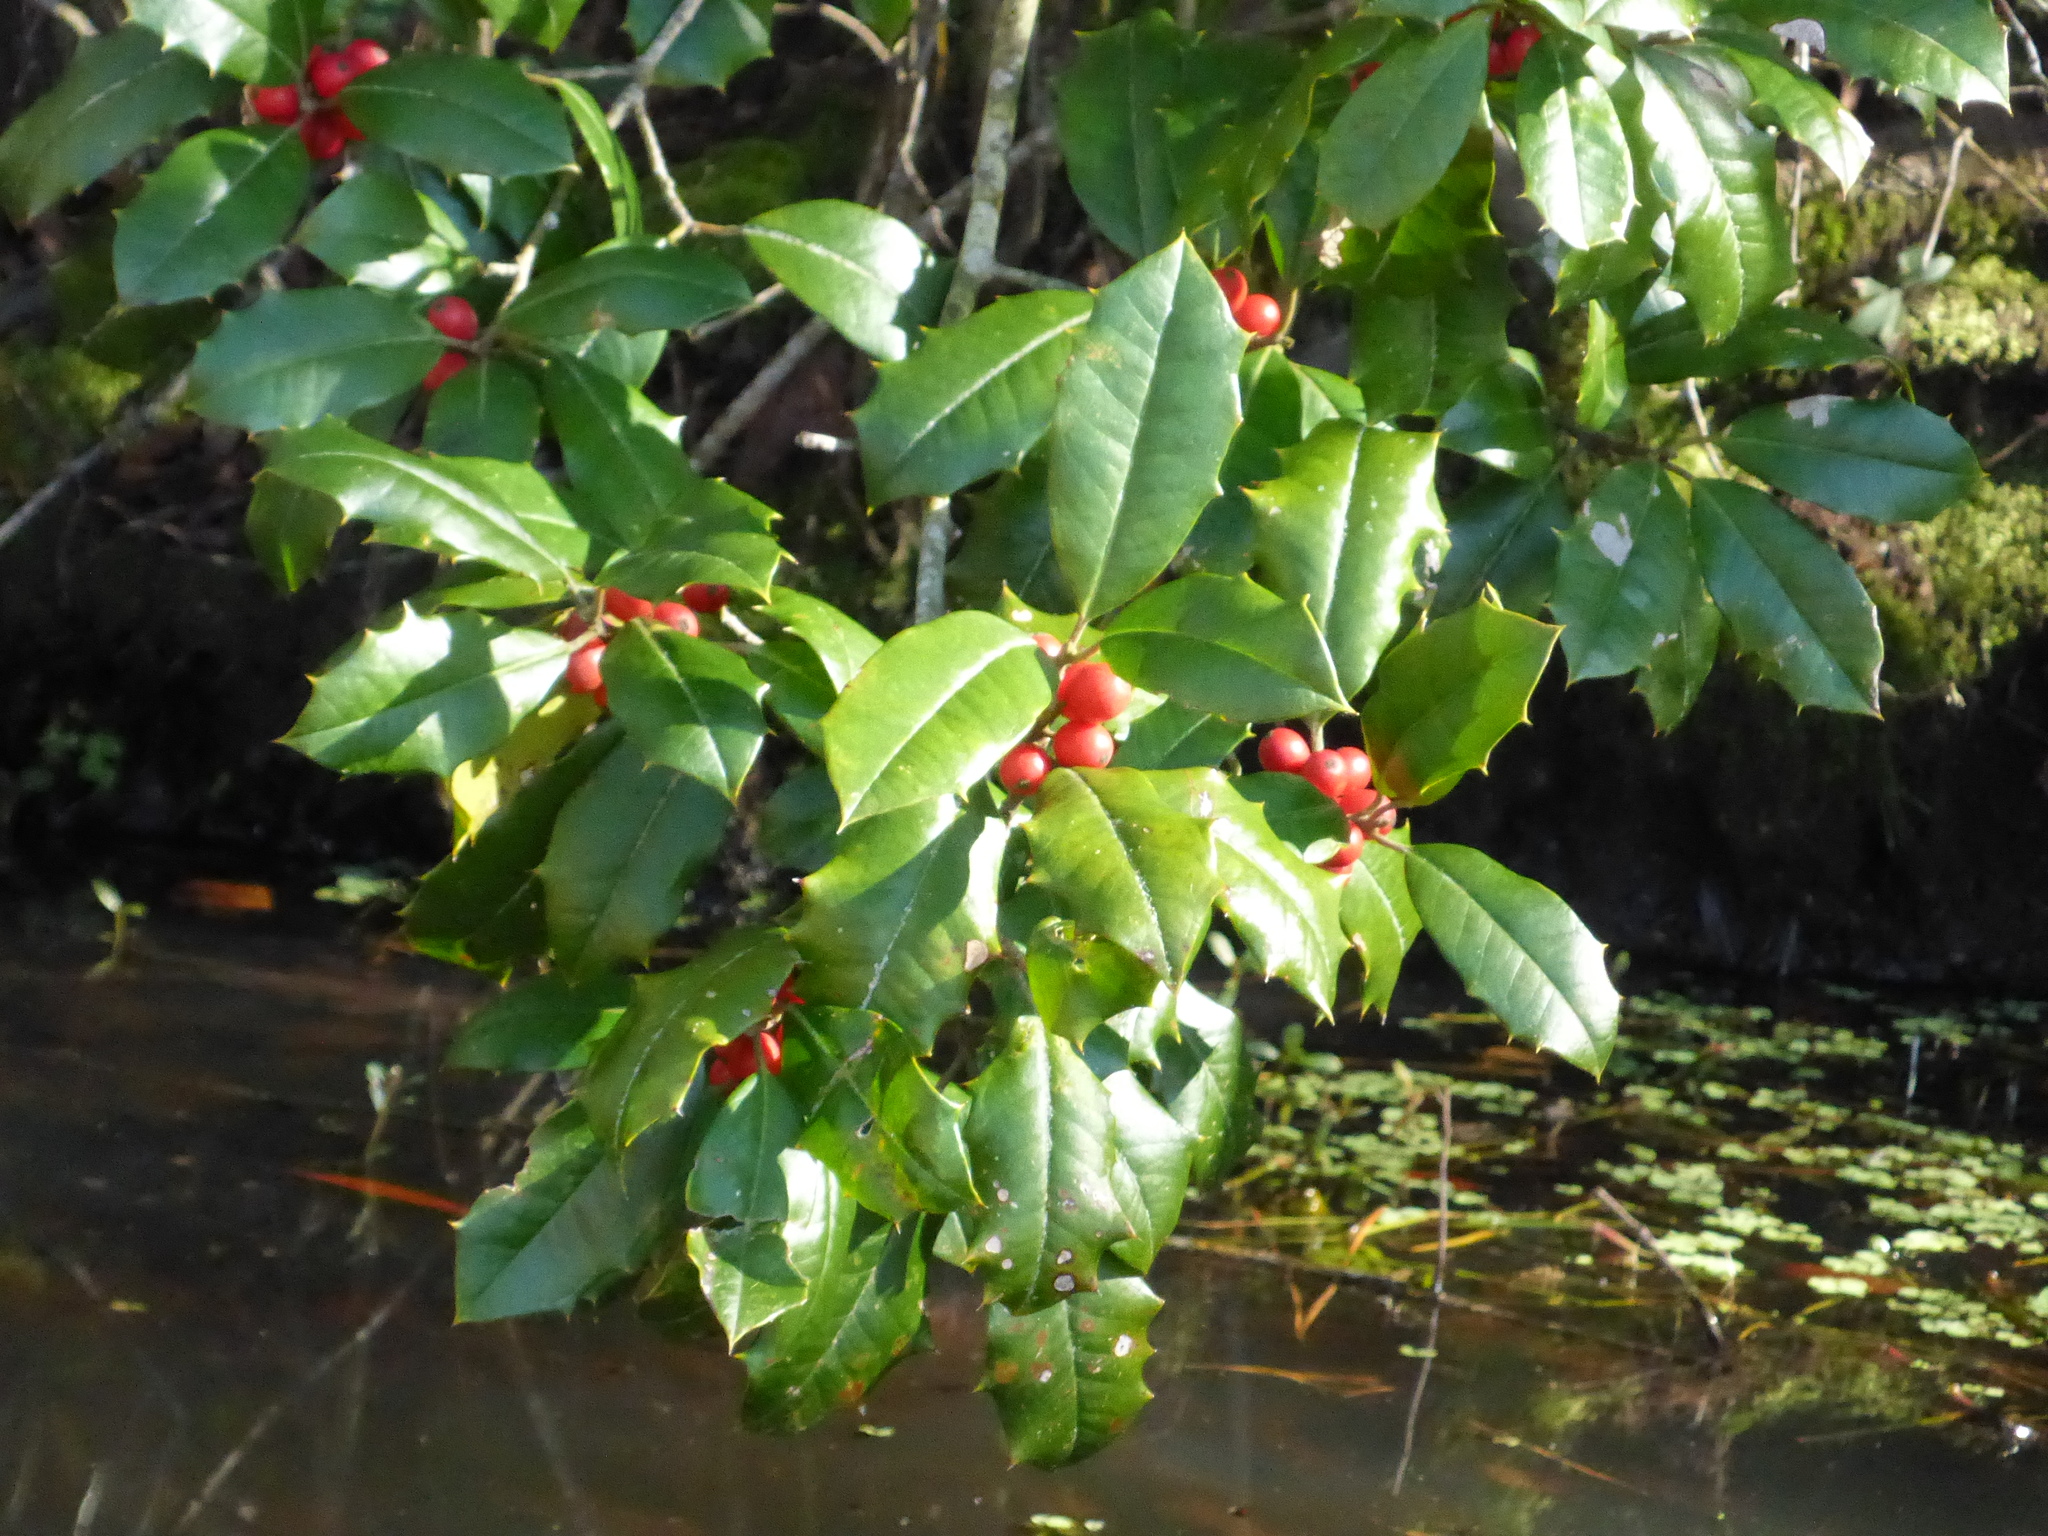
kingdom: Plantae
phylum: Tracheophyta
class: Magnoliopsida
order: Aquifoliales
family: Aquifoliaceae
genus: Ilex
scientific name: Ilex opaca
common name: American holly
